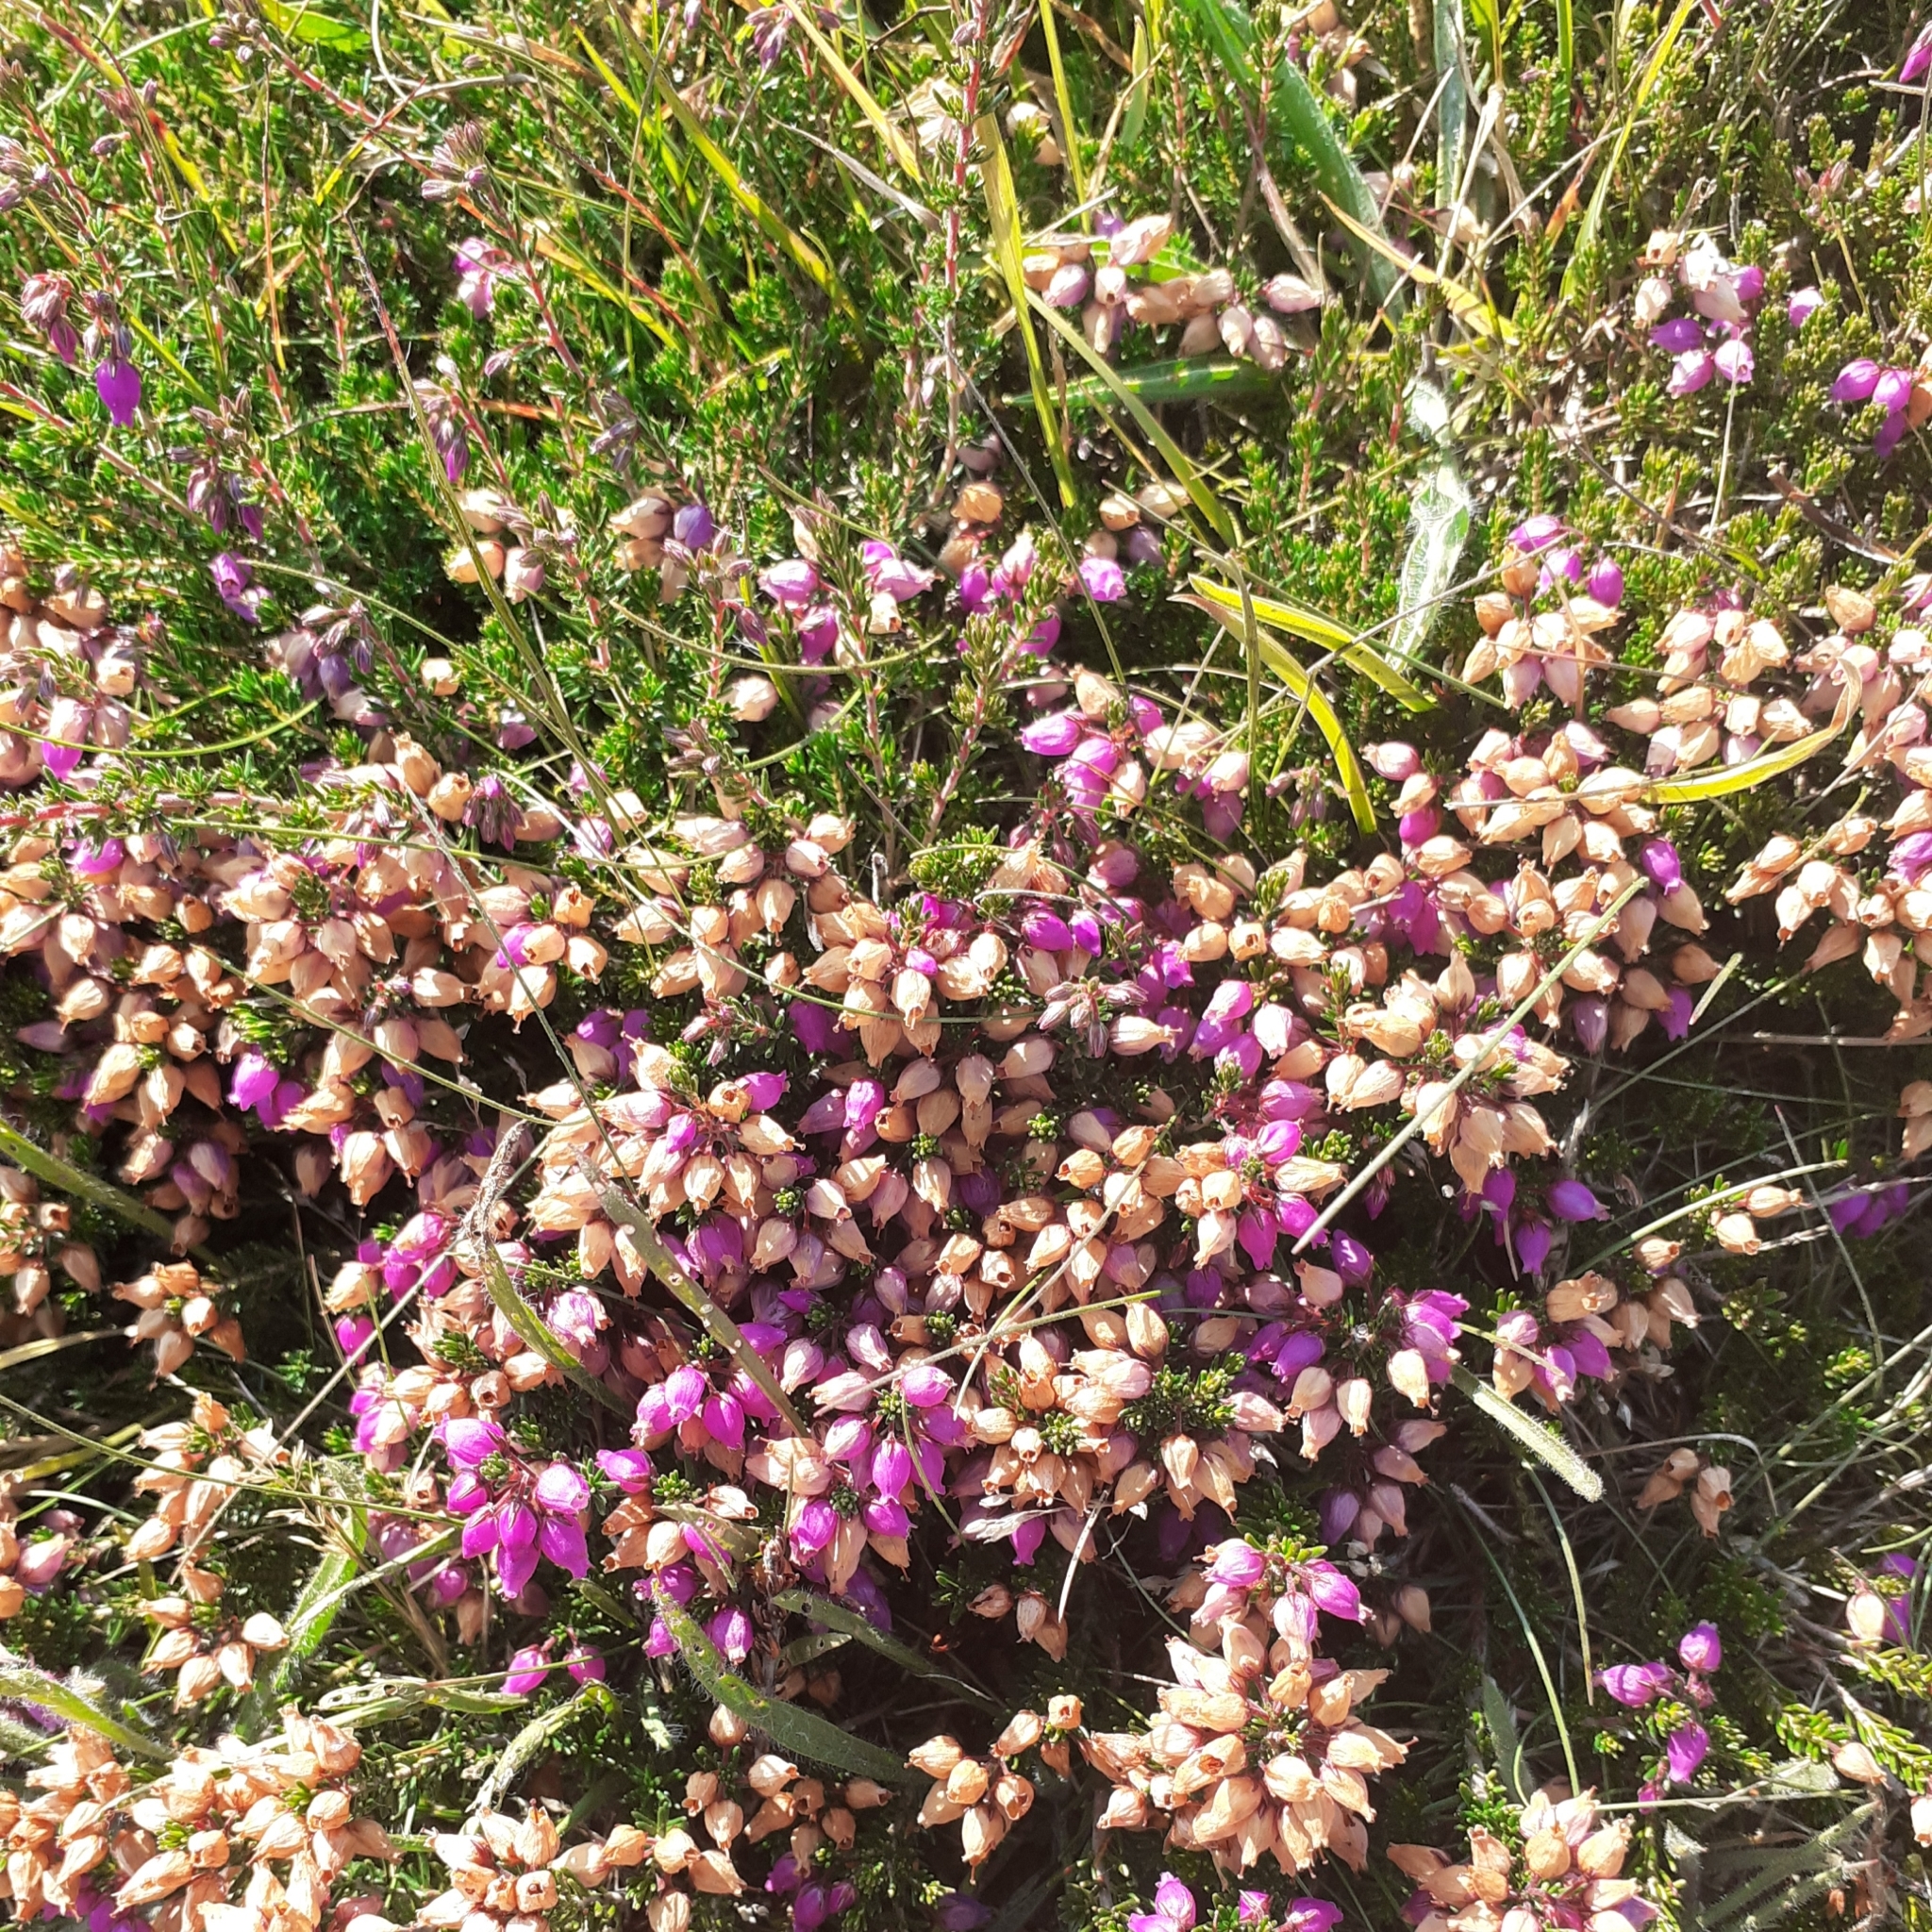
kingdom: Plantae
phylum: Tracheophyta
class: Magnoliopsida
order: Ericales
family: Ericaceae
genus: Erica
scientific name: Erica cinerea
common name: Bell heather
